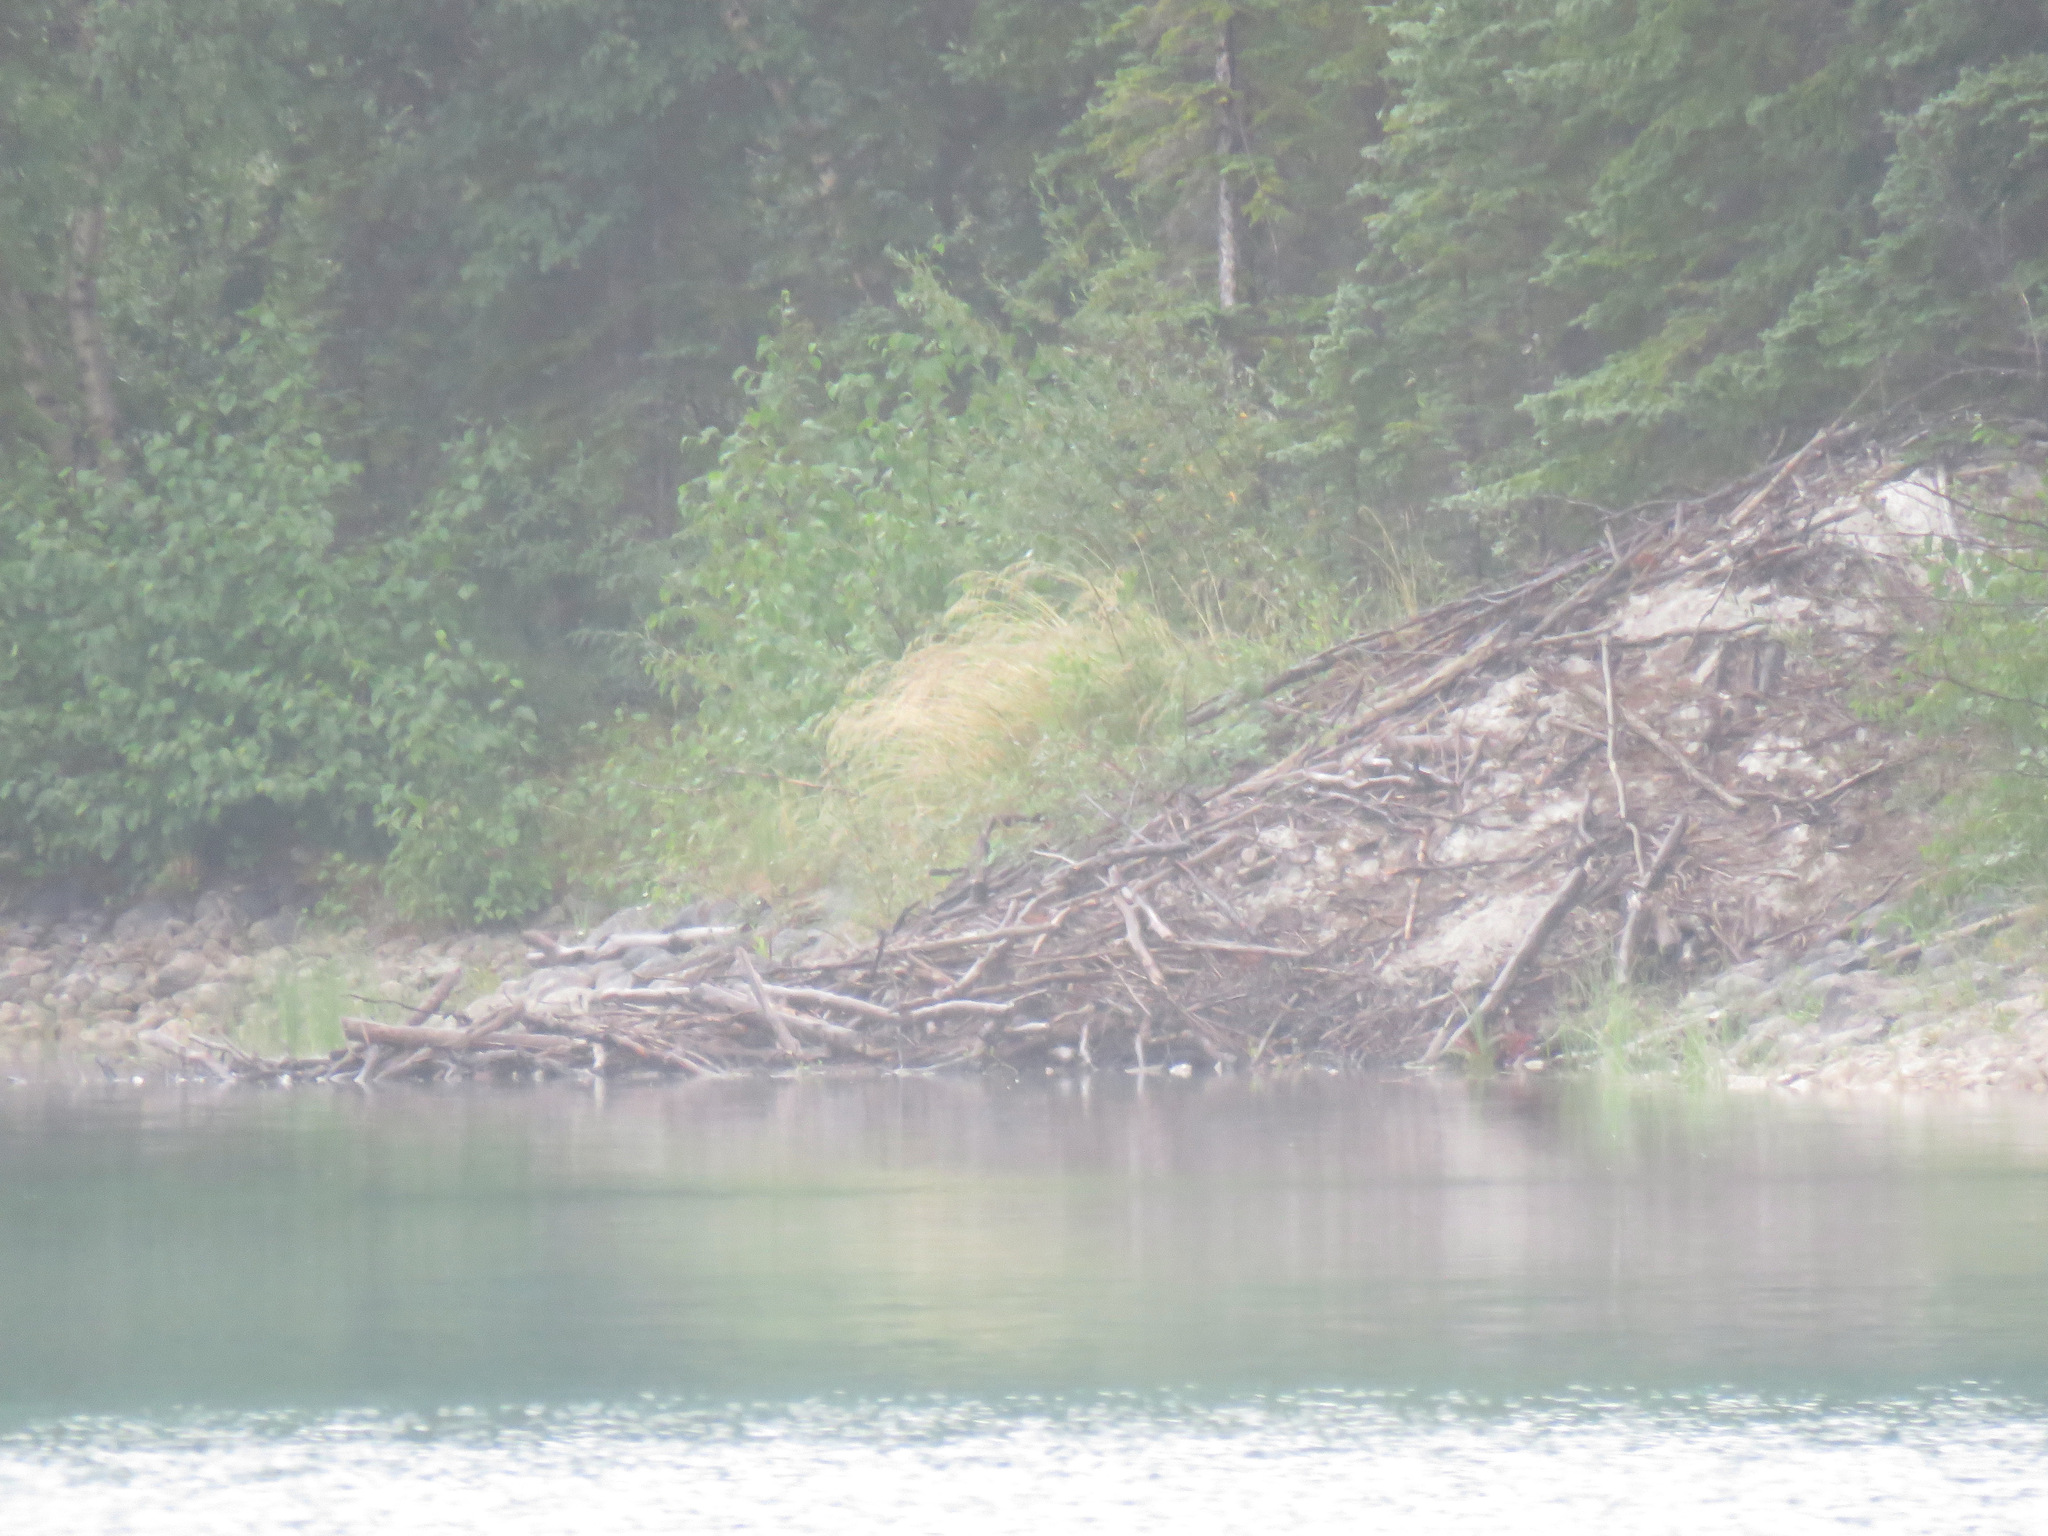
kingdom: Animalia
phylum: Chordata
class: Mammalia
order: Rodentia
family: Castoridae
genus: Castor
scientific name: Castor canadensis
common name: American beaver
